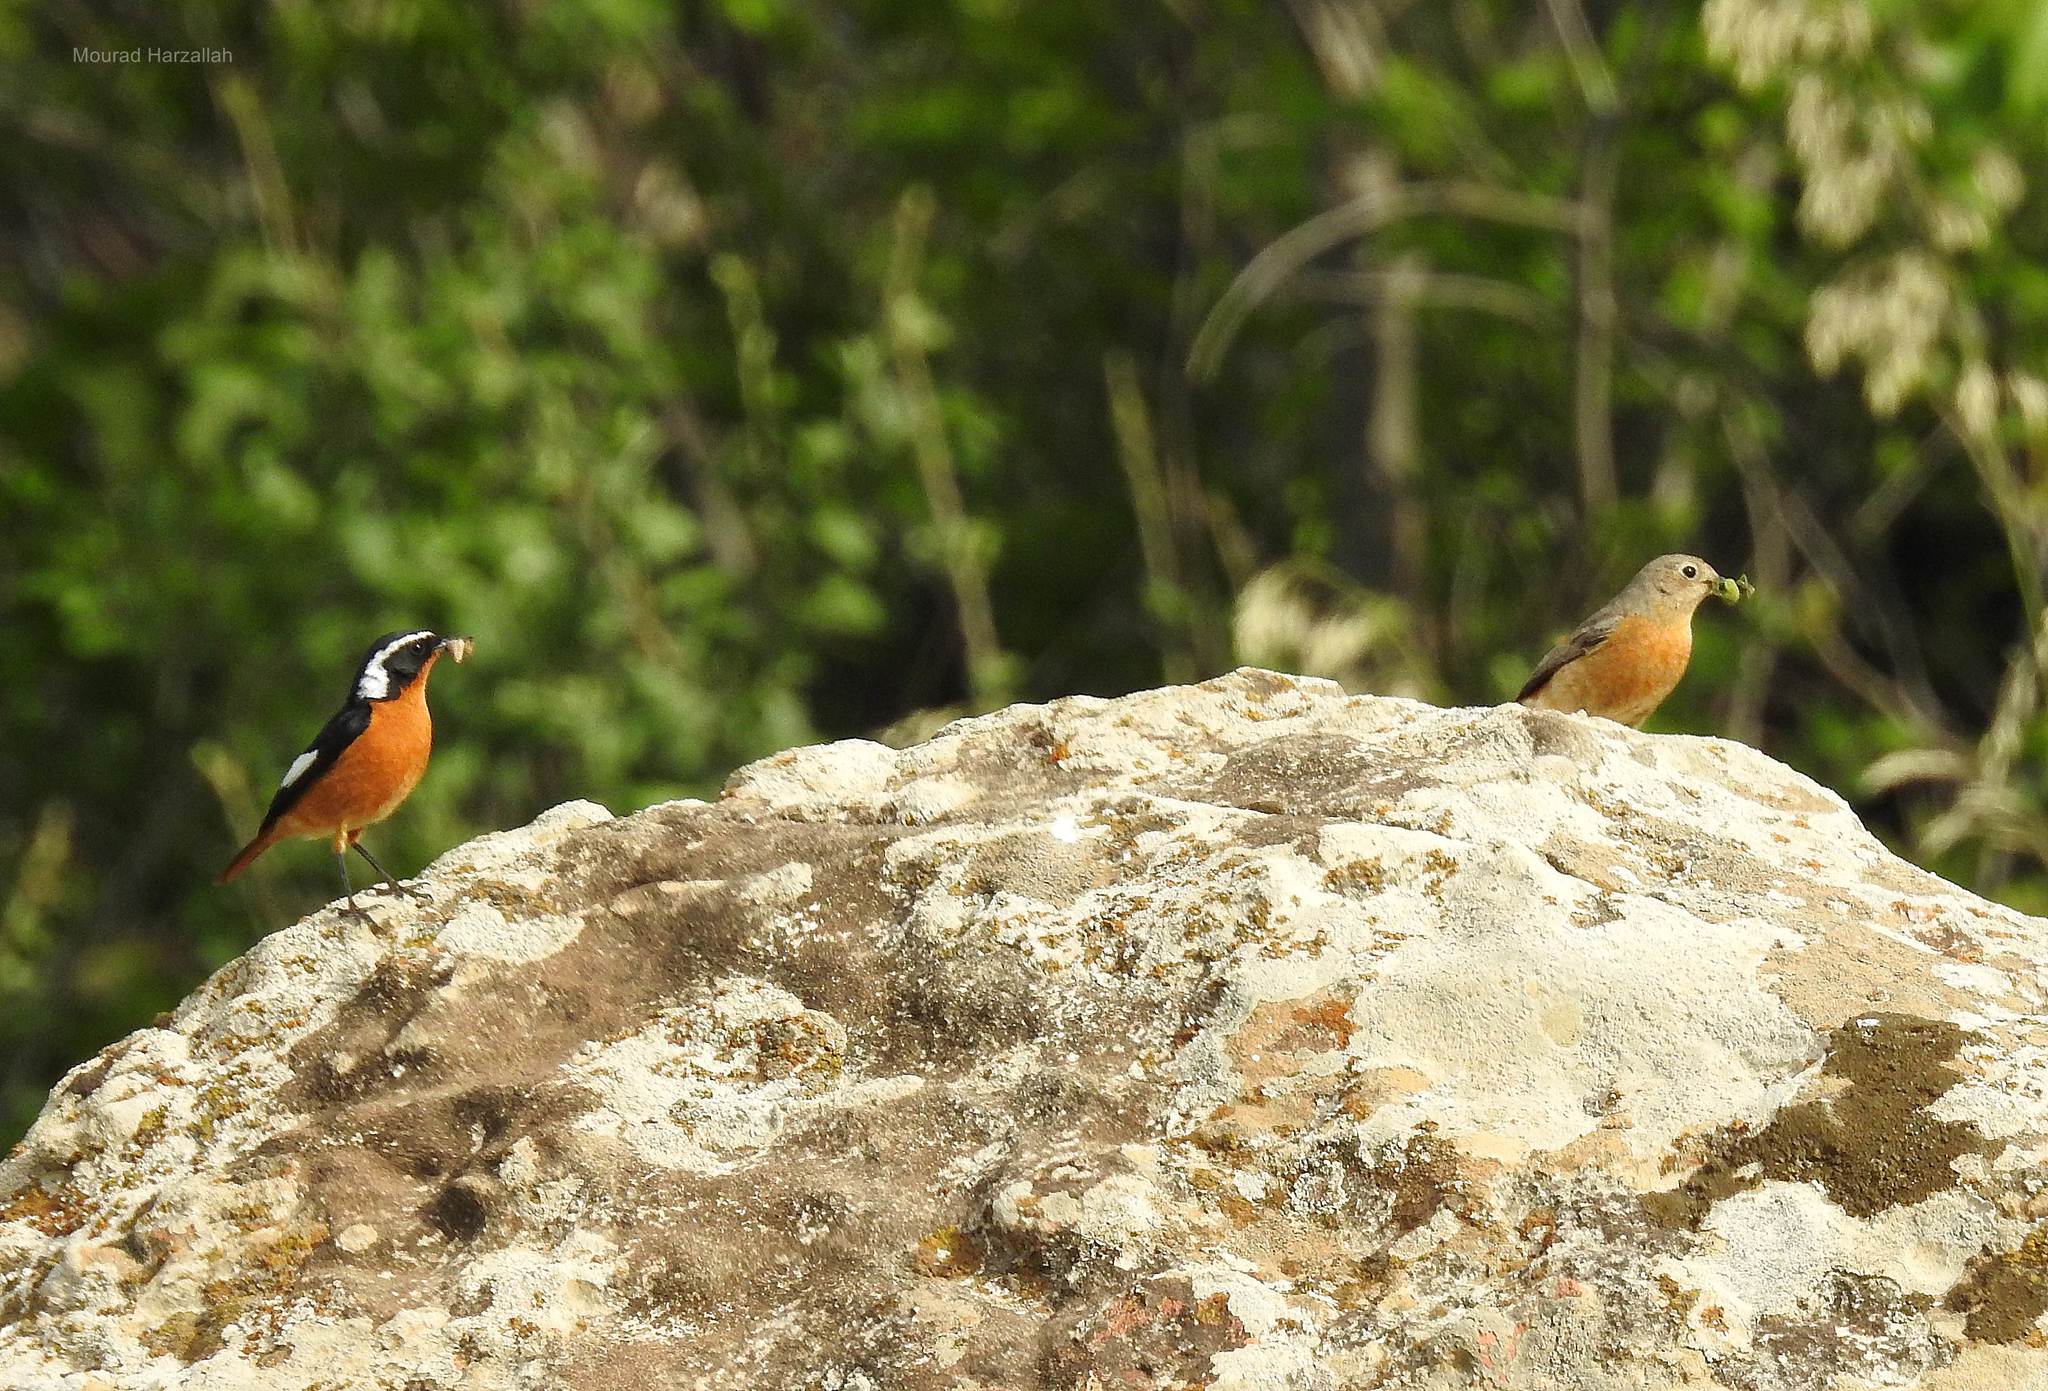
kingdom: Animalia
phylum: Chordata
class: Aves
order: Passeriformes
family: Muscicapidae
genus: Phoenicurus
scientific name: Phoenicurus moussieri
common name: Moussier's redstart
